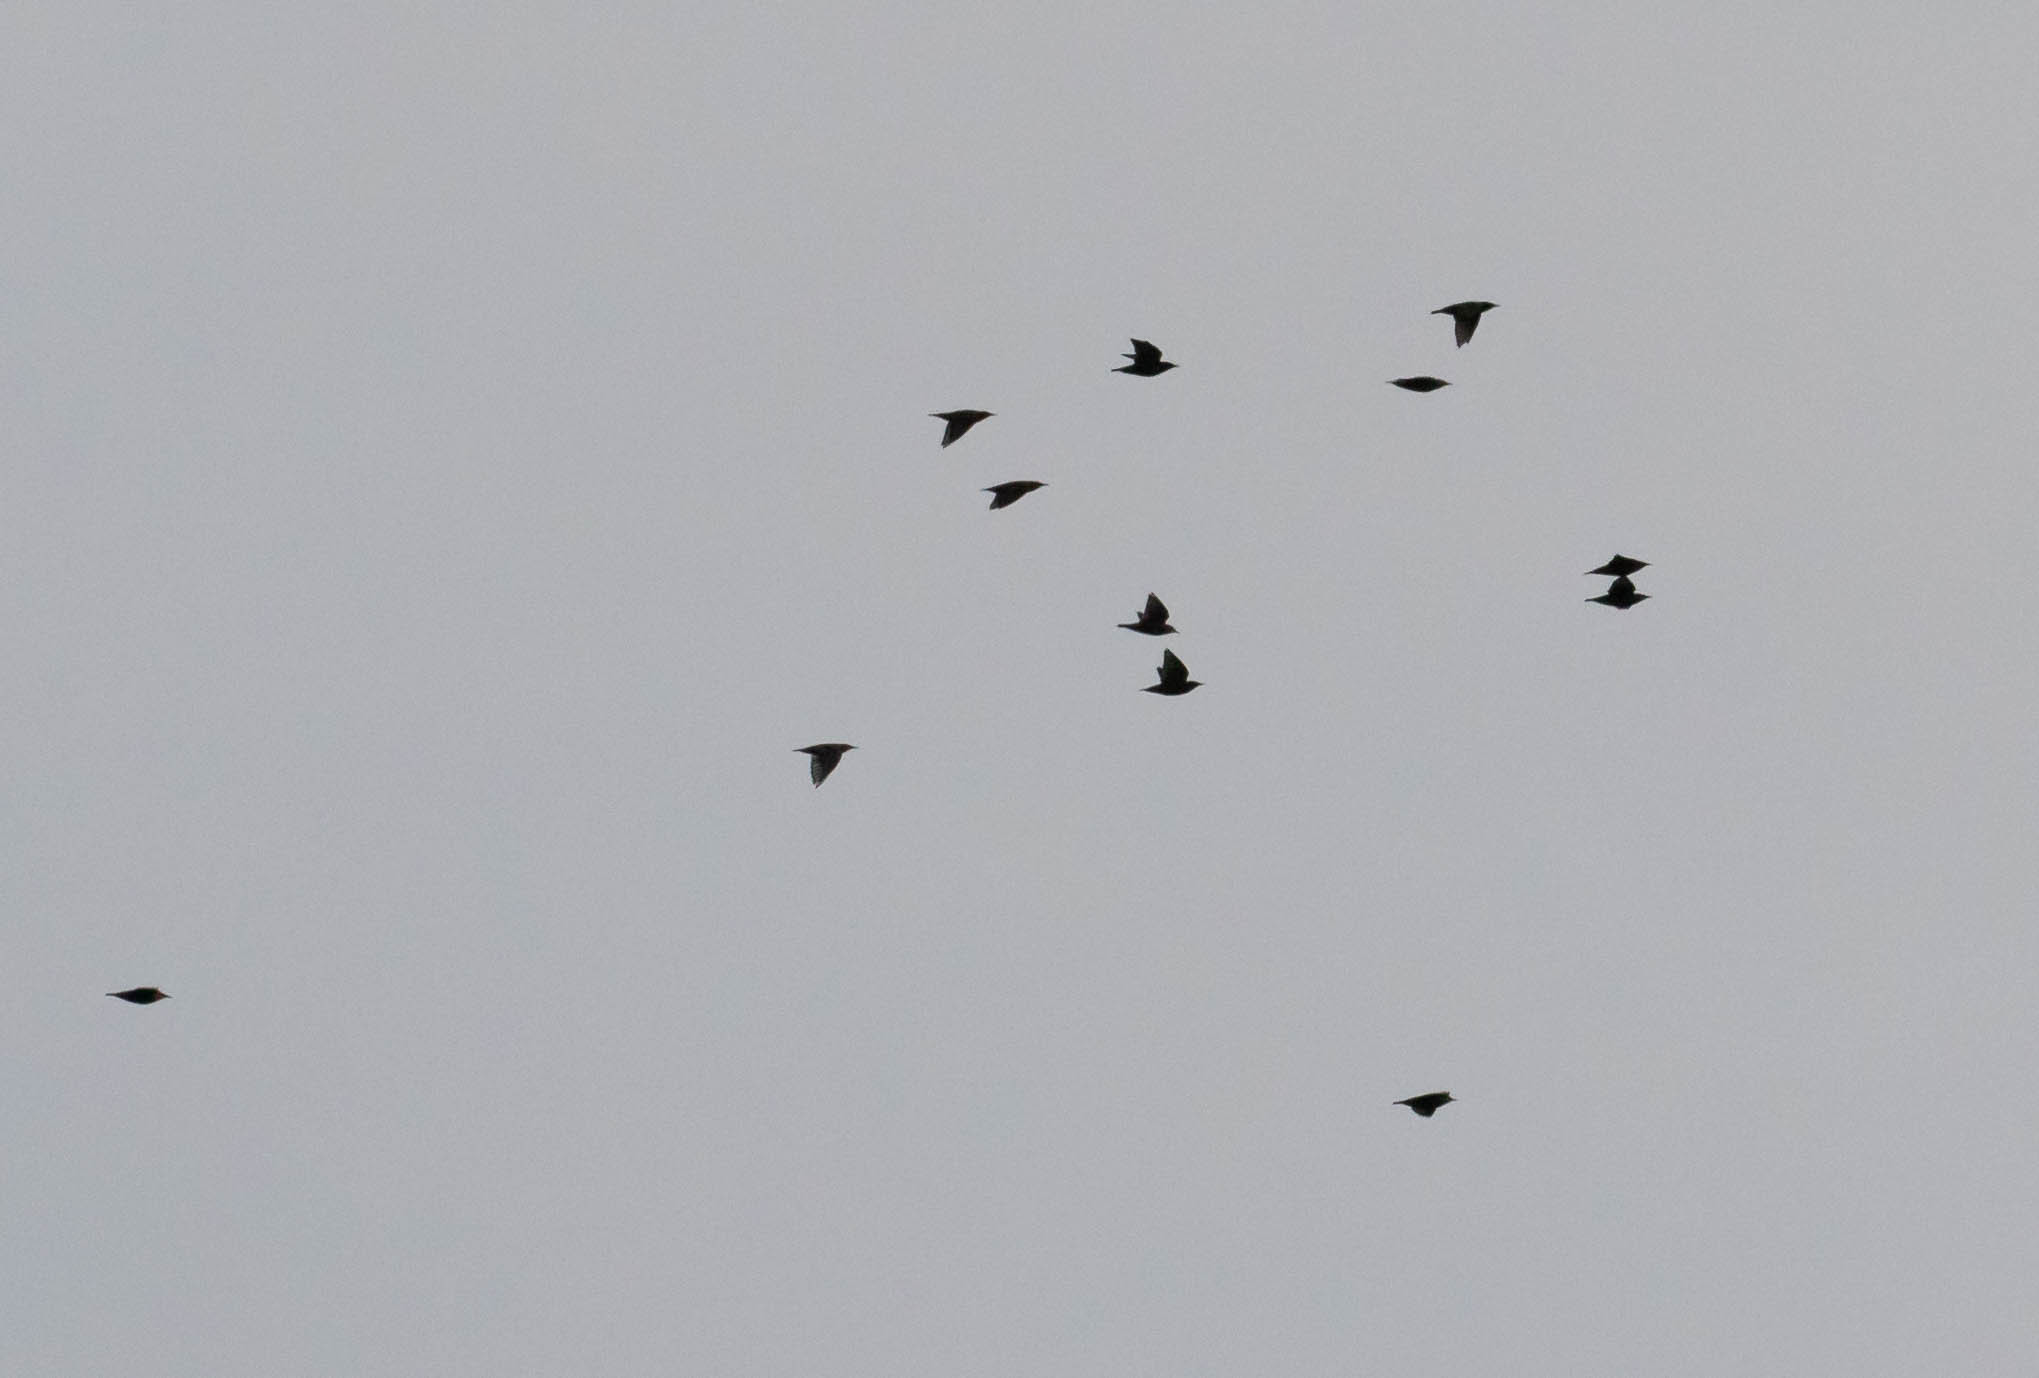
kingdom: Animalia
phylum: Chordata
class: Aves
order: Passeriformes
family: Sturnidae
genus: Sturnus
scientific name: Sturnus vulgaris
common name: Common starling
